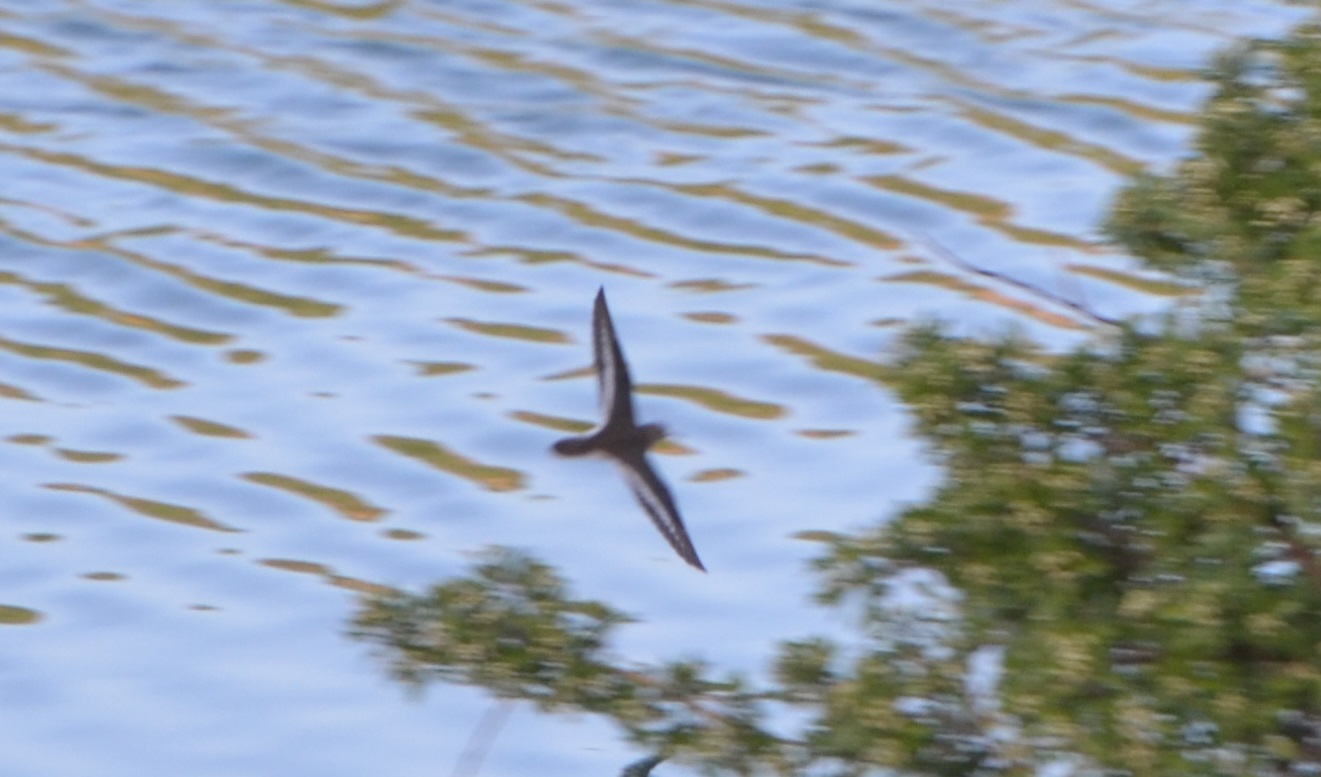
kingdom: Animalia
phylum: Chordata
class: Aves
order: Charadriiformes
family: Scolopacidae
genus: Actitis
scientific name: Actitis hypoleucos
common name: Common sandpiper
